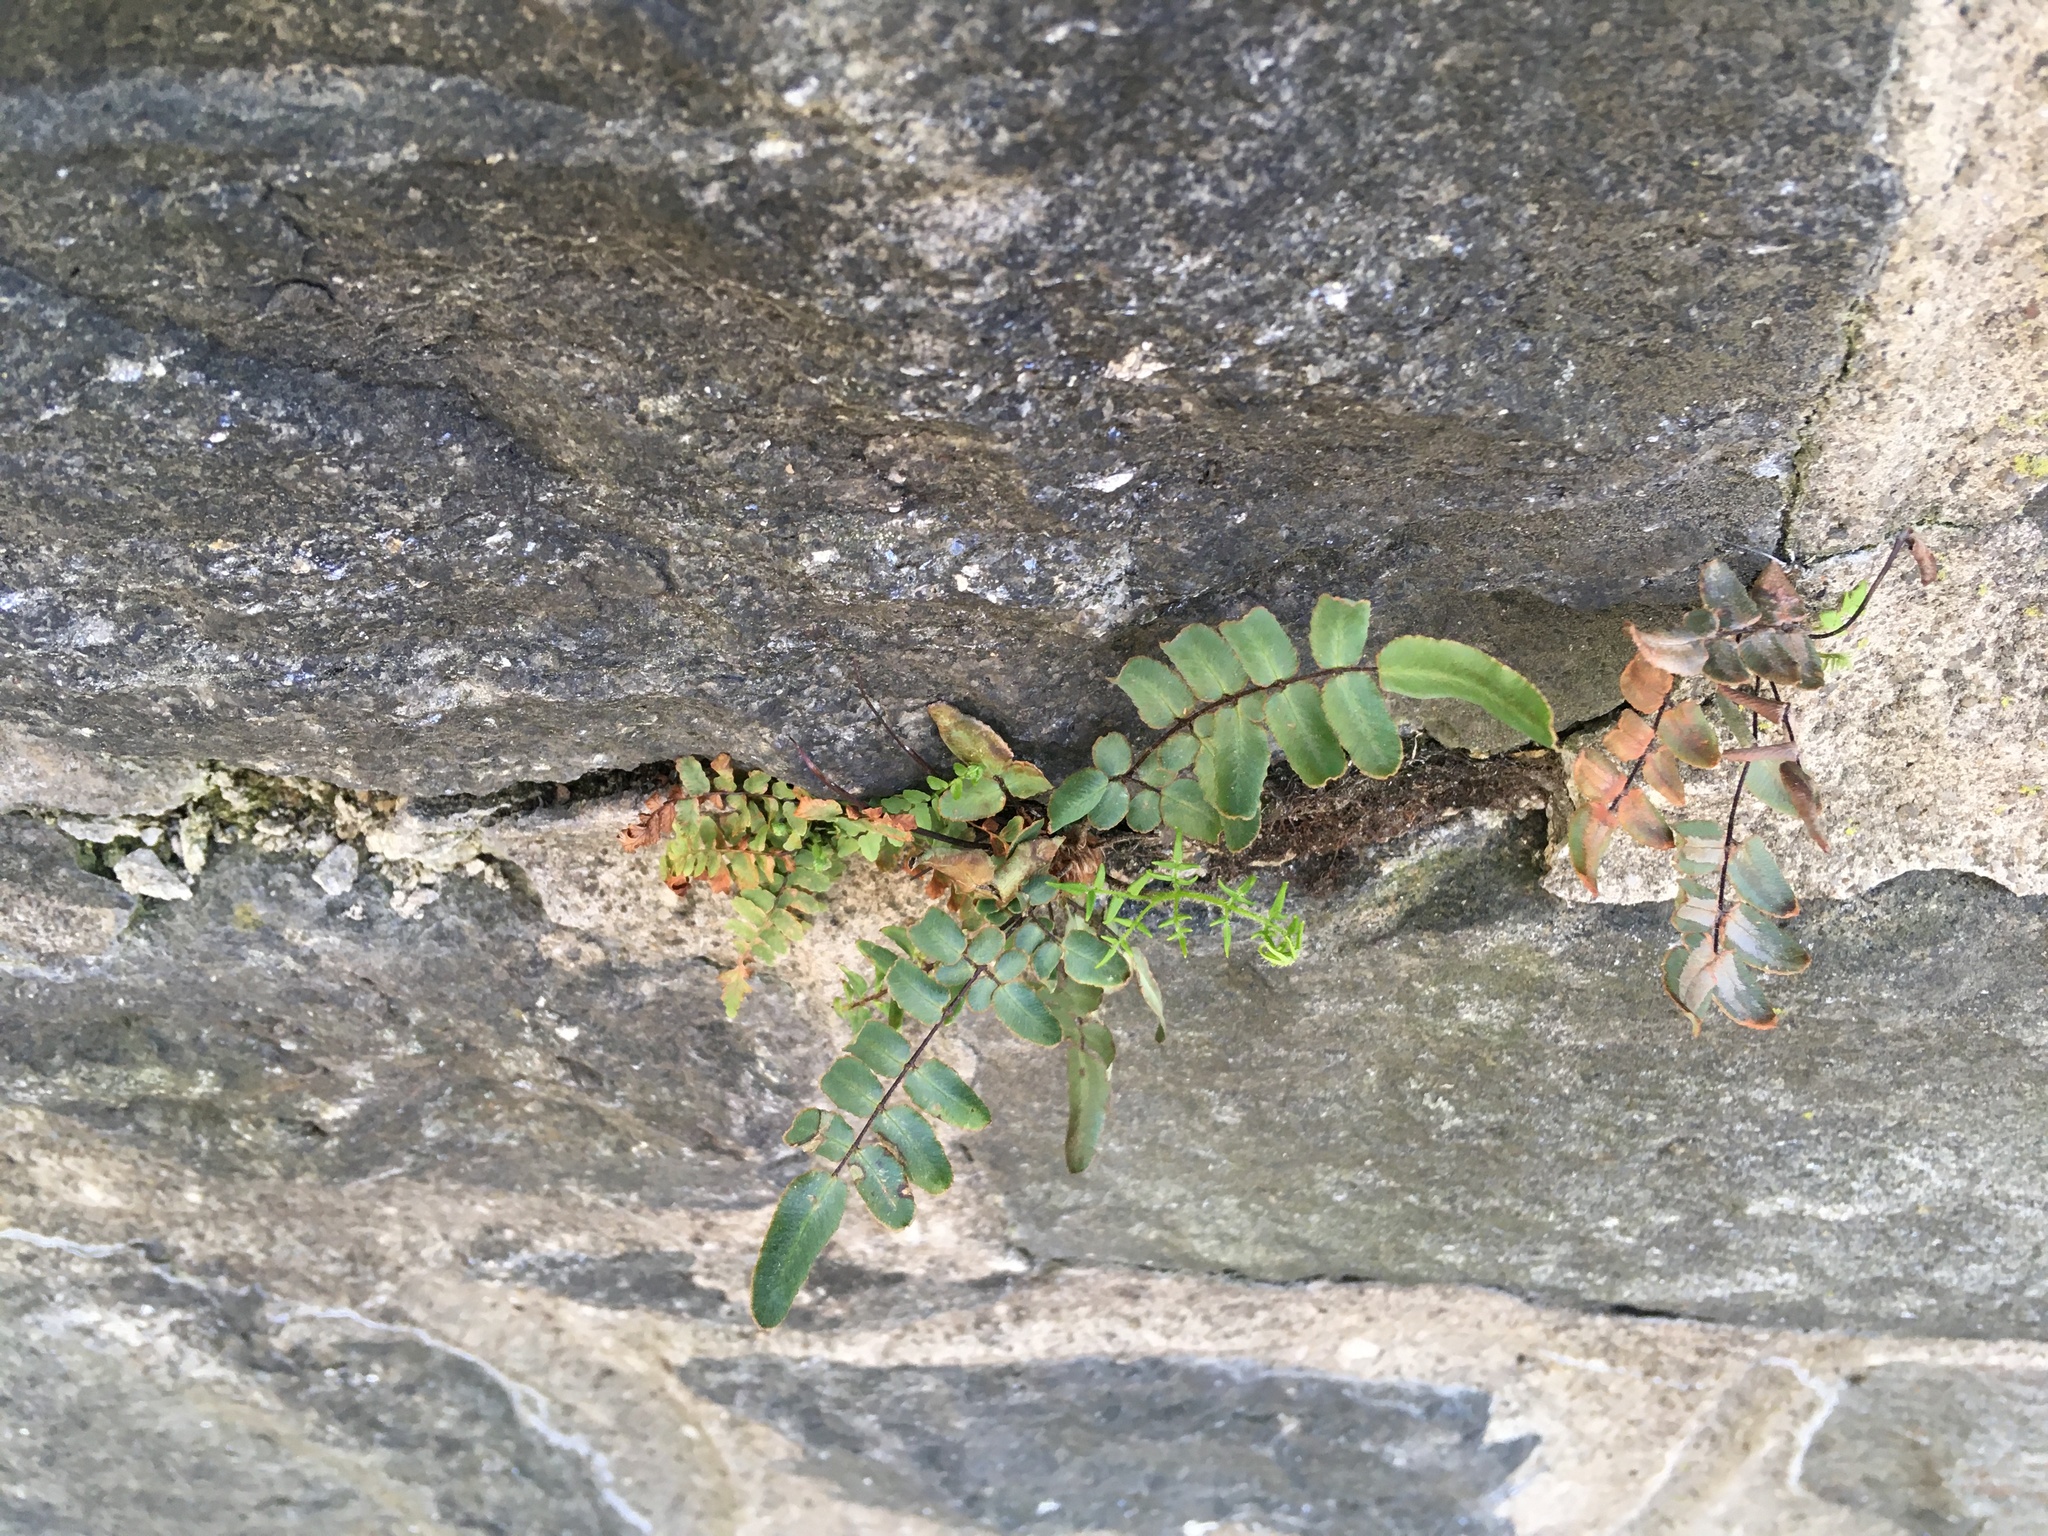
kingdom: Plantae
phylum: Tracheophyta
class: Polypodiopsida
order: Polypodiales
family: Pteridaceae
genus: Pellaea
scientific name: Pellaea atropurpurea
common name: Hairy cliffbrake
